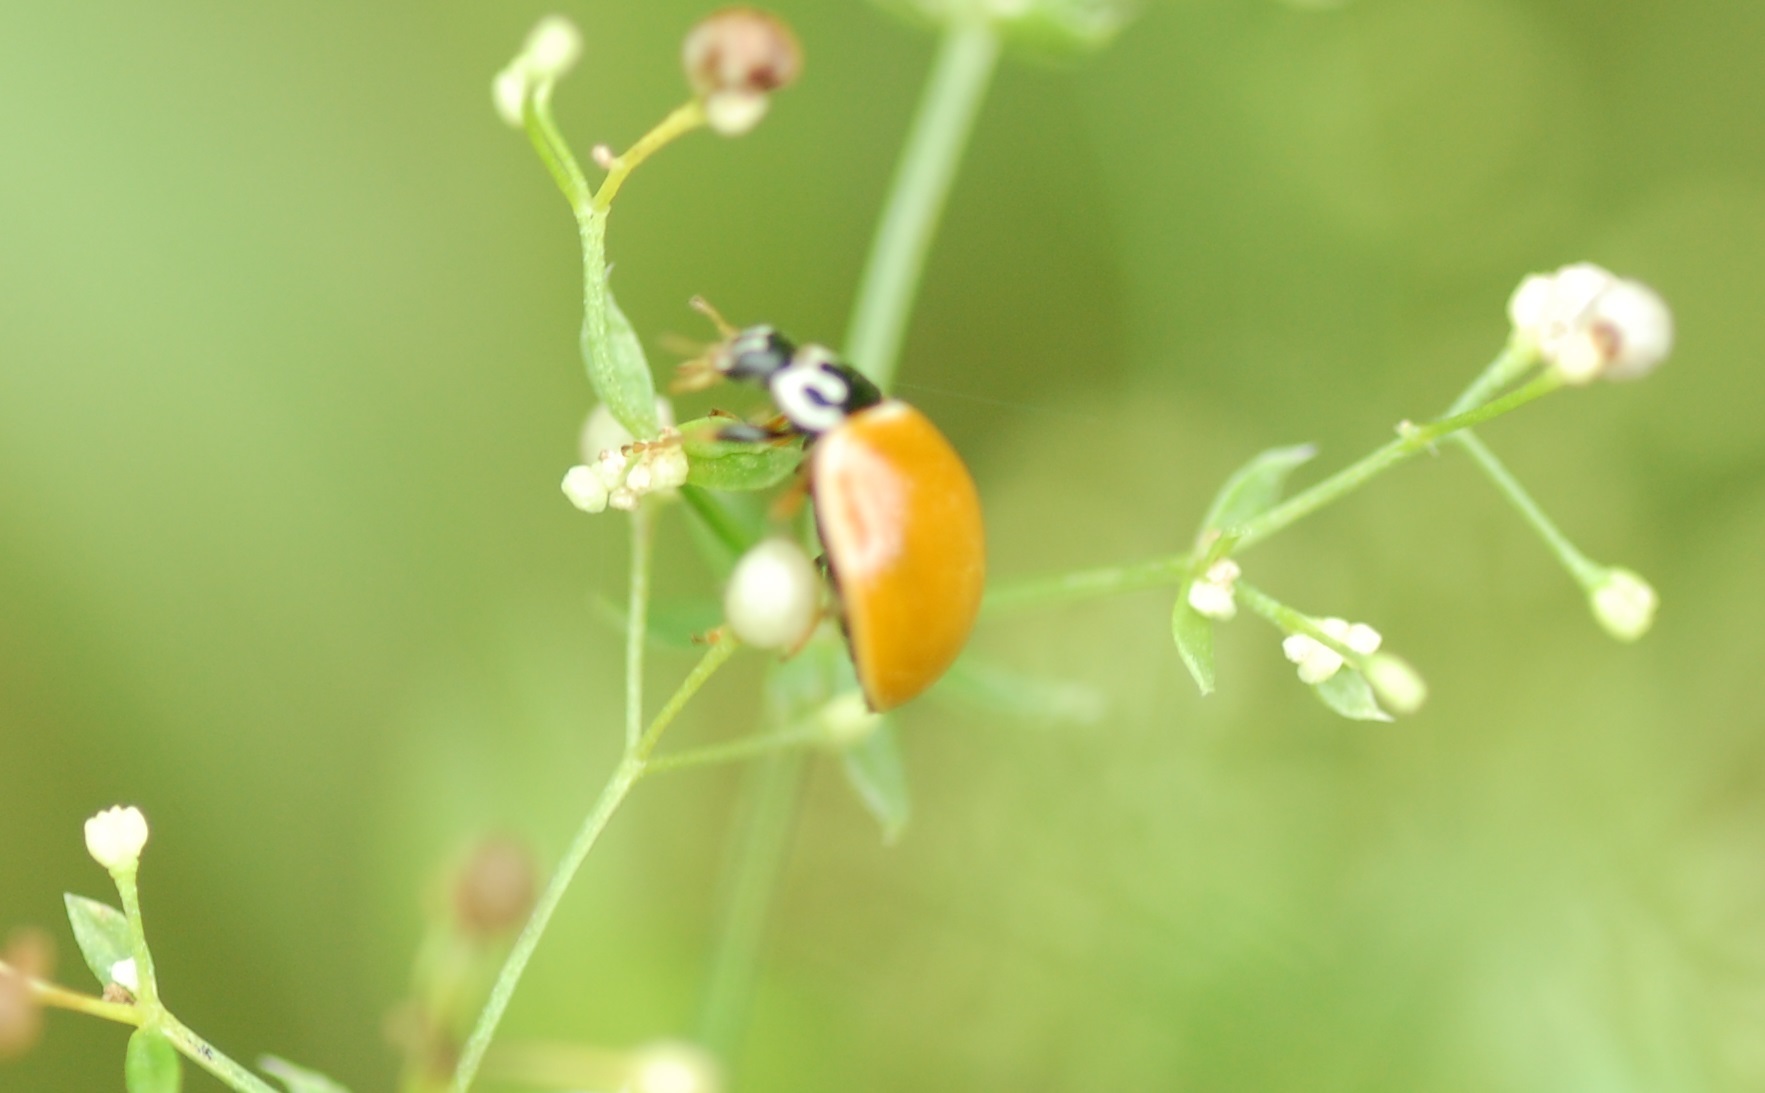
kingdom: Animalia
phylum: Arthropoda
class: Insecta
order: Coleoptera
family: Coccinellidae
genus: Cycloneda
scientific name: Cycloneda munda
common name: Polished lady beetle
